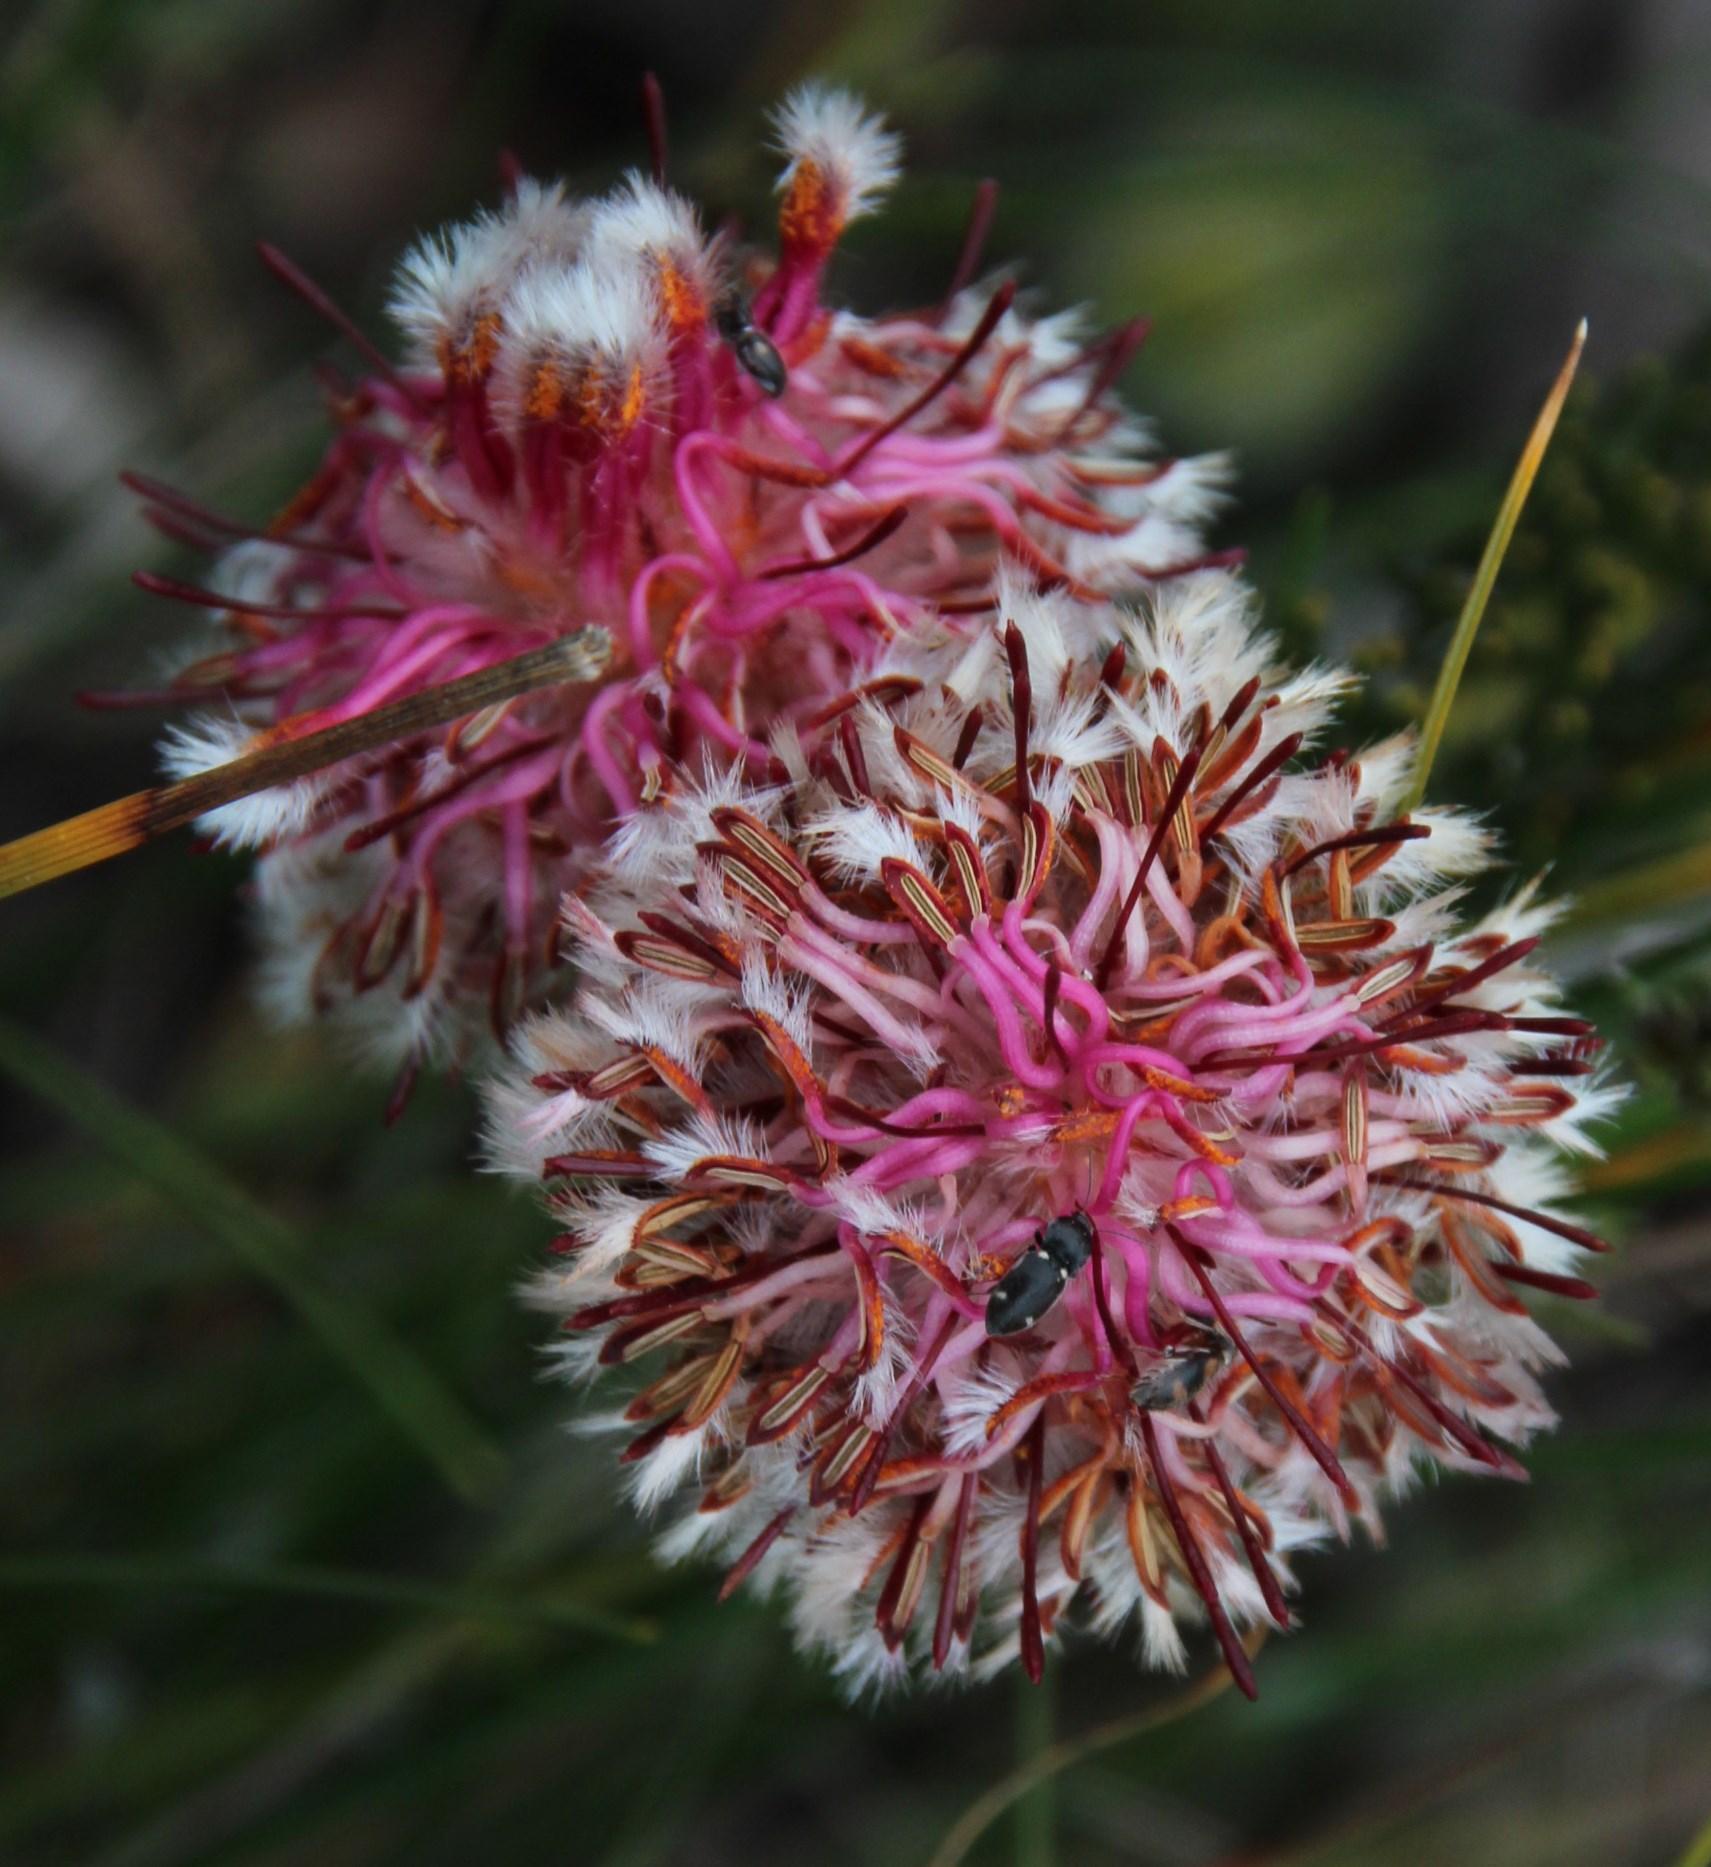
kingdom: Plantae
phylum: Tracheophyta
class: Magnoliopsida
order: Proteales
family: Proteaceae
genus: Serruria
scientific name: Serruria trilopha
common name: Trident spiderhead
